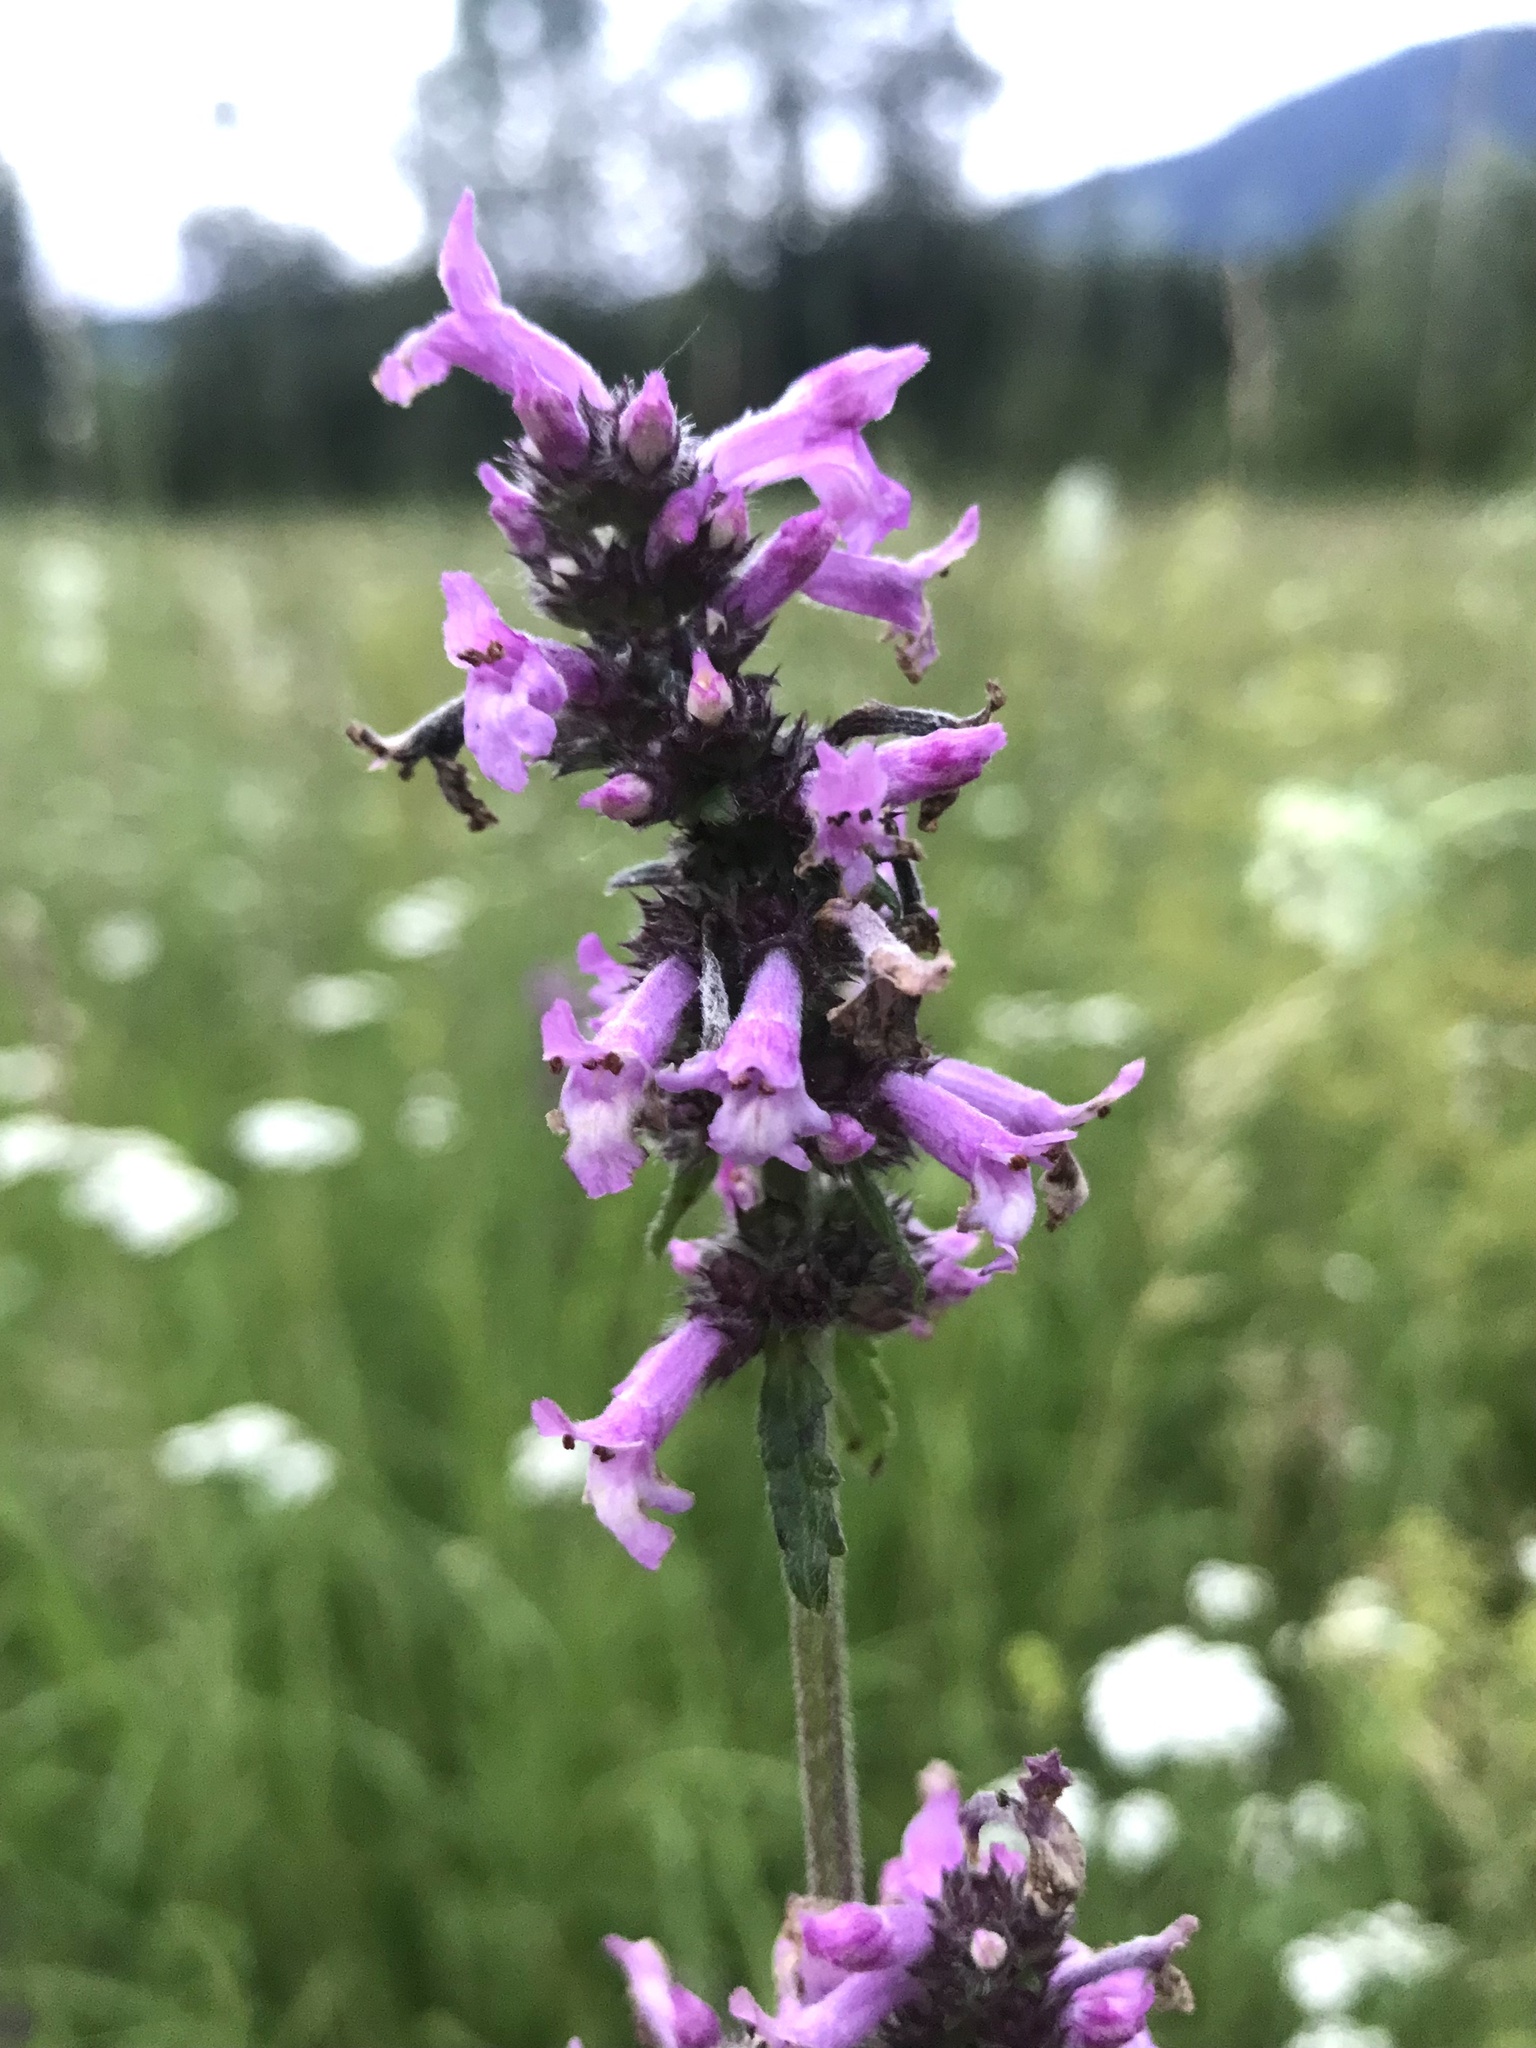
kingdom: Plantae
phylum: Tracheophyta
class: Magnoliopsida
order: Lamiales
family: Lamiaceae
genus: Betonica
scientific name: Betonica officinalis
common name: Bishop's-wort
